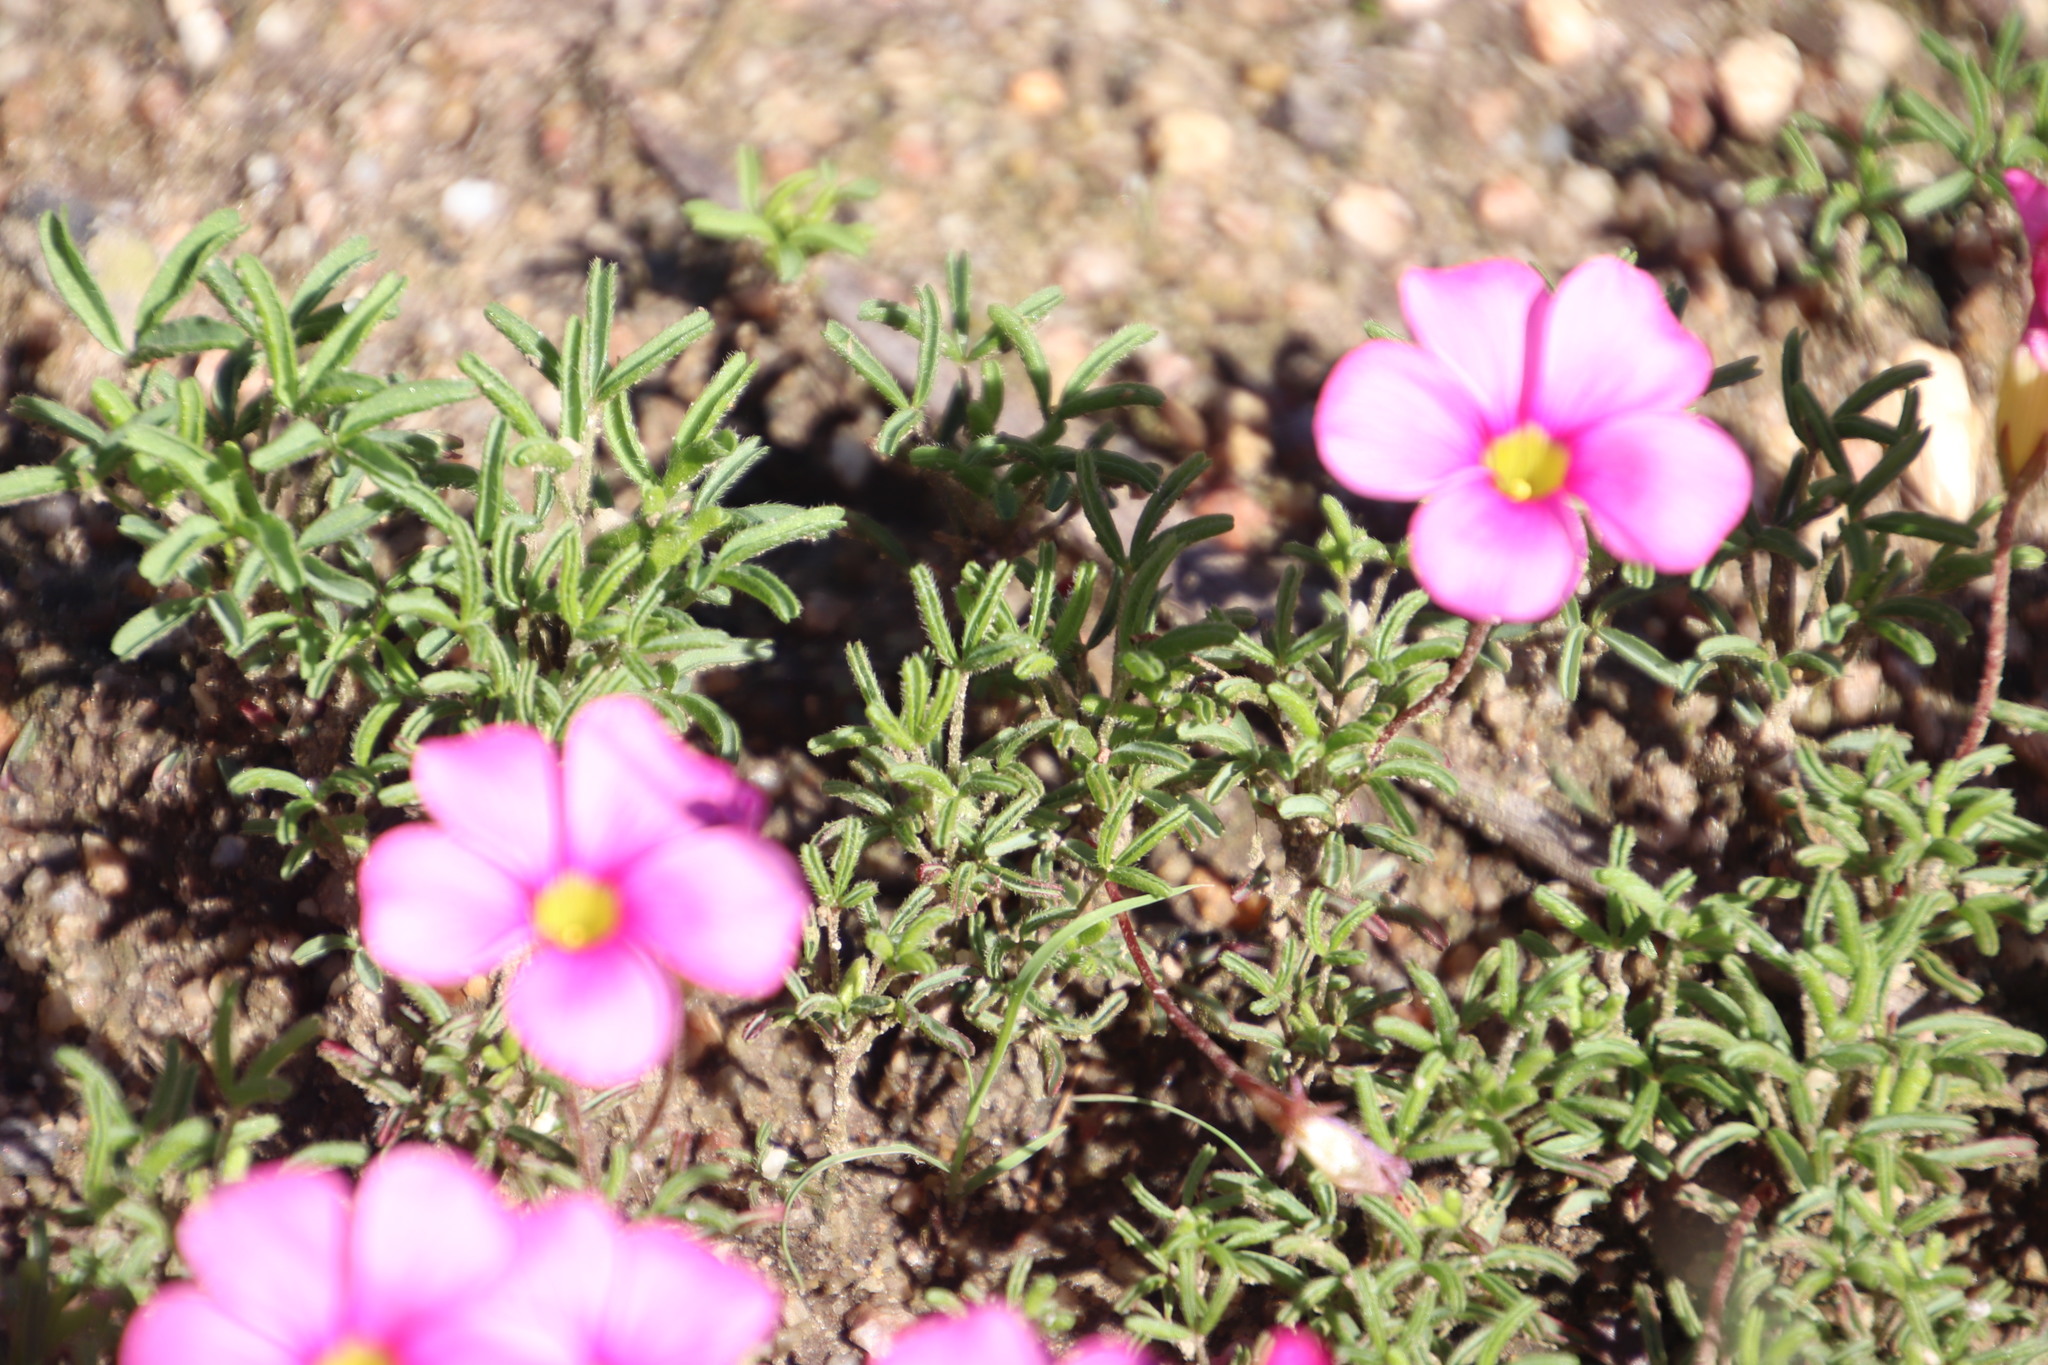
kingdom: Plantae
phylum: Tracheophyta
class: Magnoliopsida
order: Oxalidales
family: Oxalidaceae
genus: Oxalis
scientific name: Oxalis glabra
